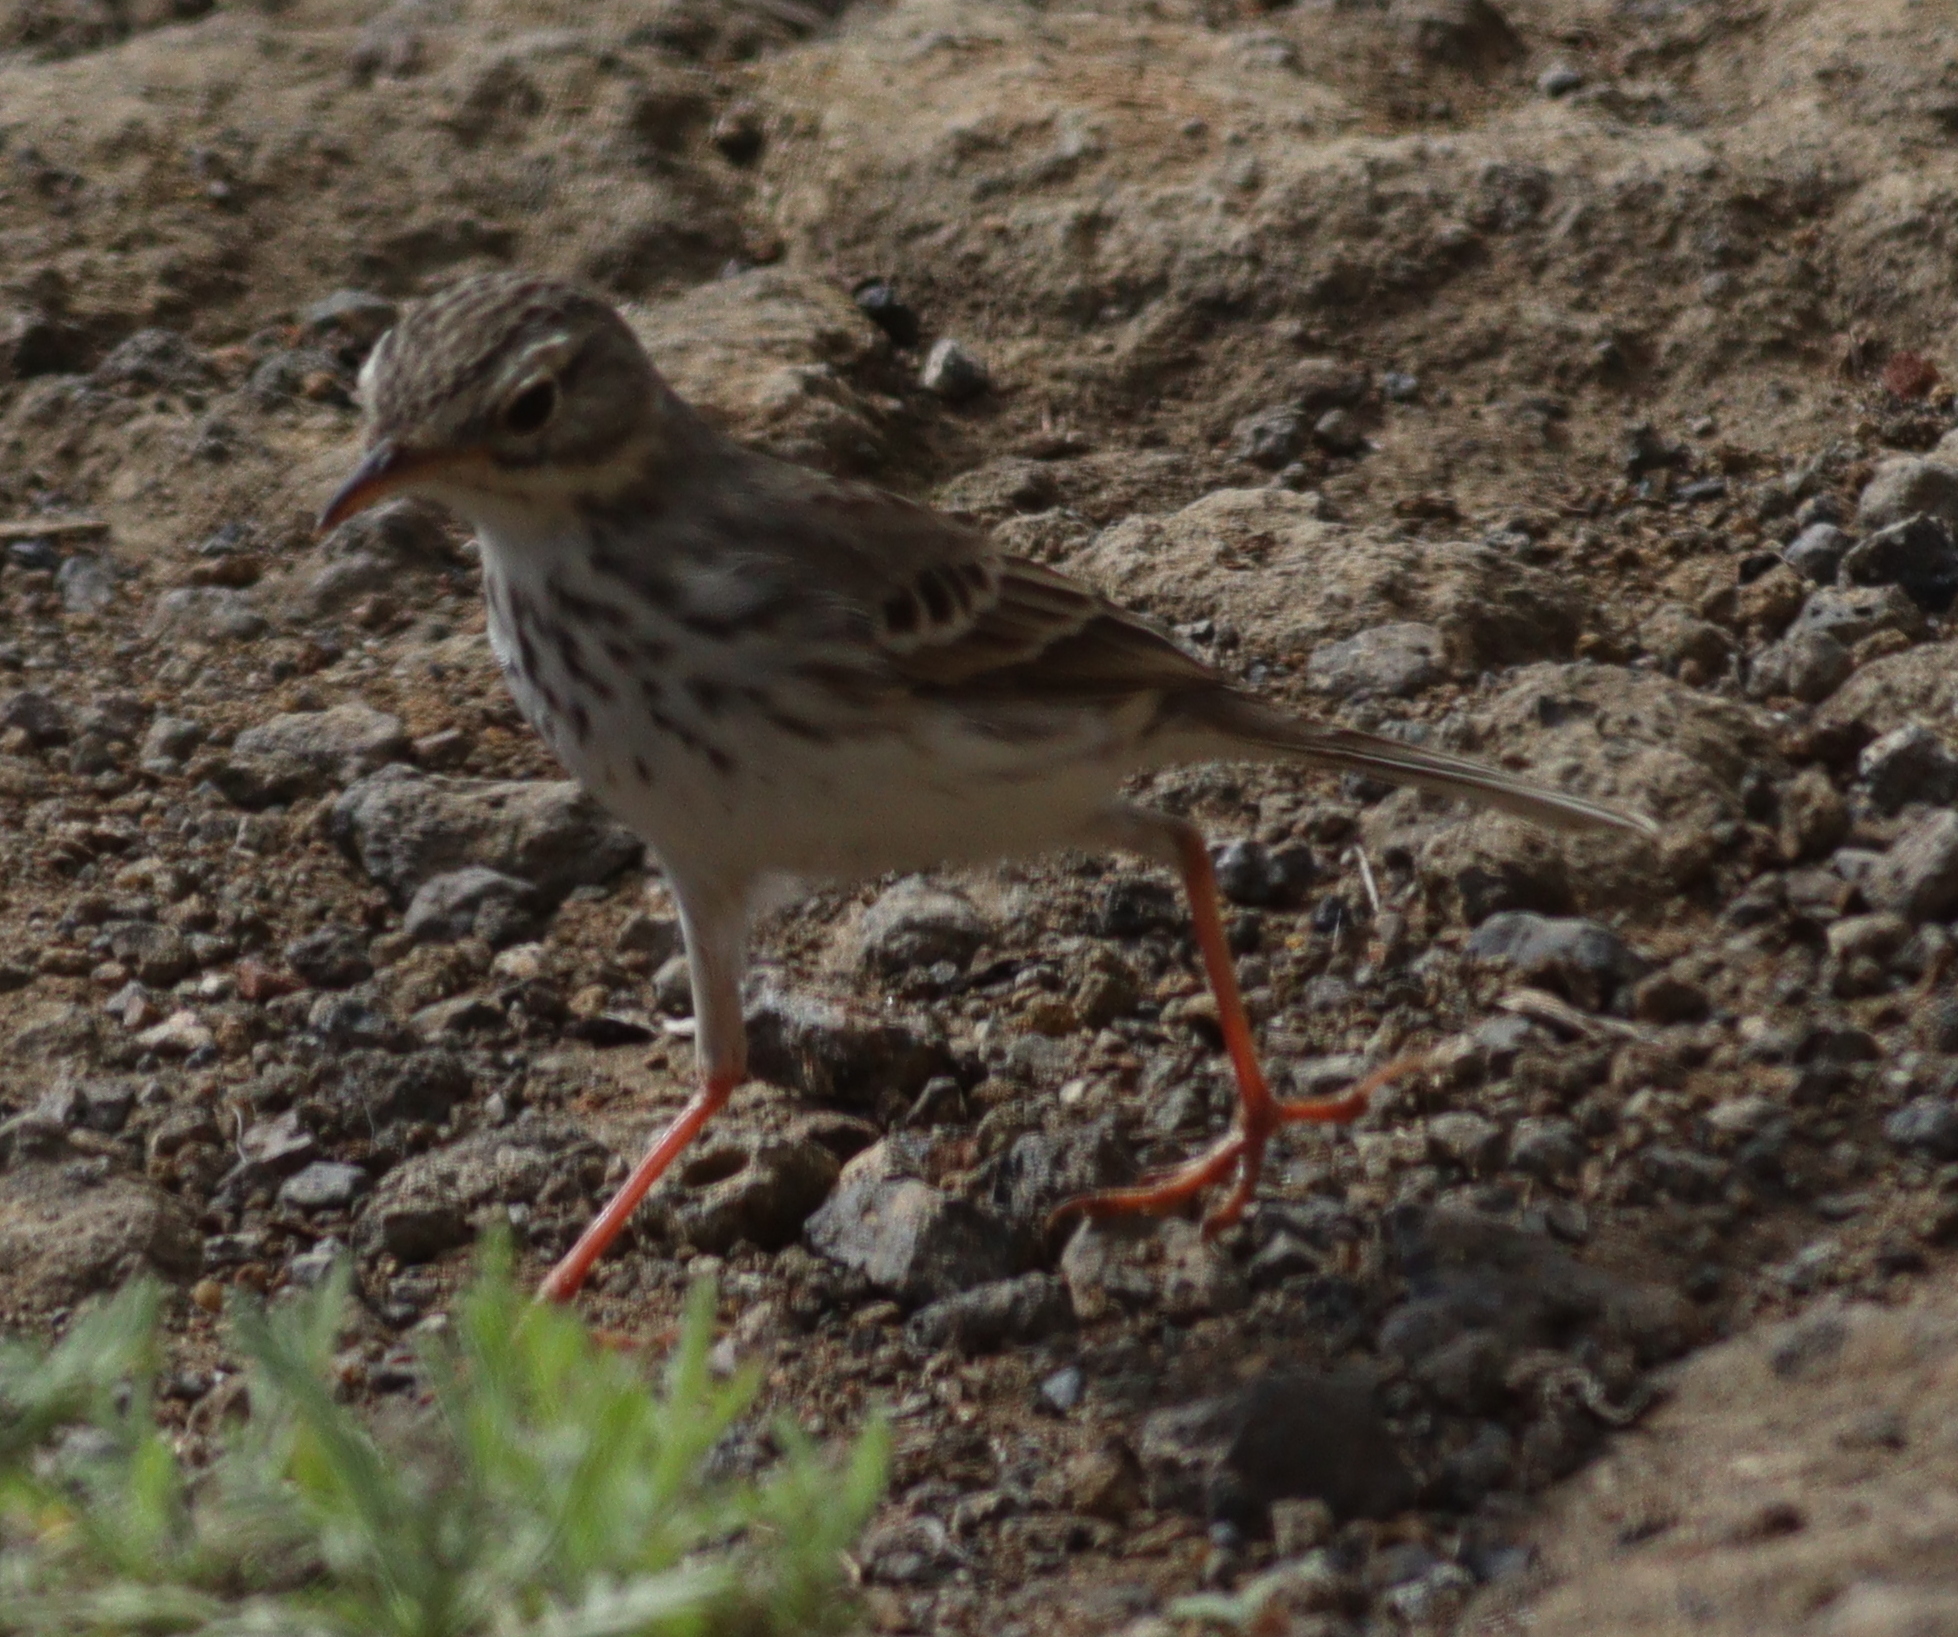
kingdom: Animalia
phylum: Chordata
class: Aves
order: Passeriformes
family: Motacillidae
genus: Anthus
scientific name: Anthus berthelotii
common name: Berthelot's pipit
